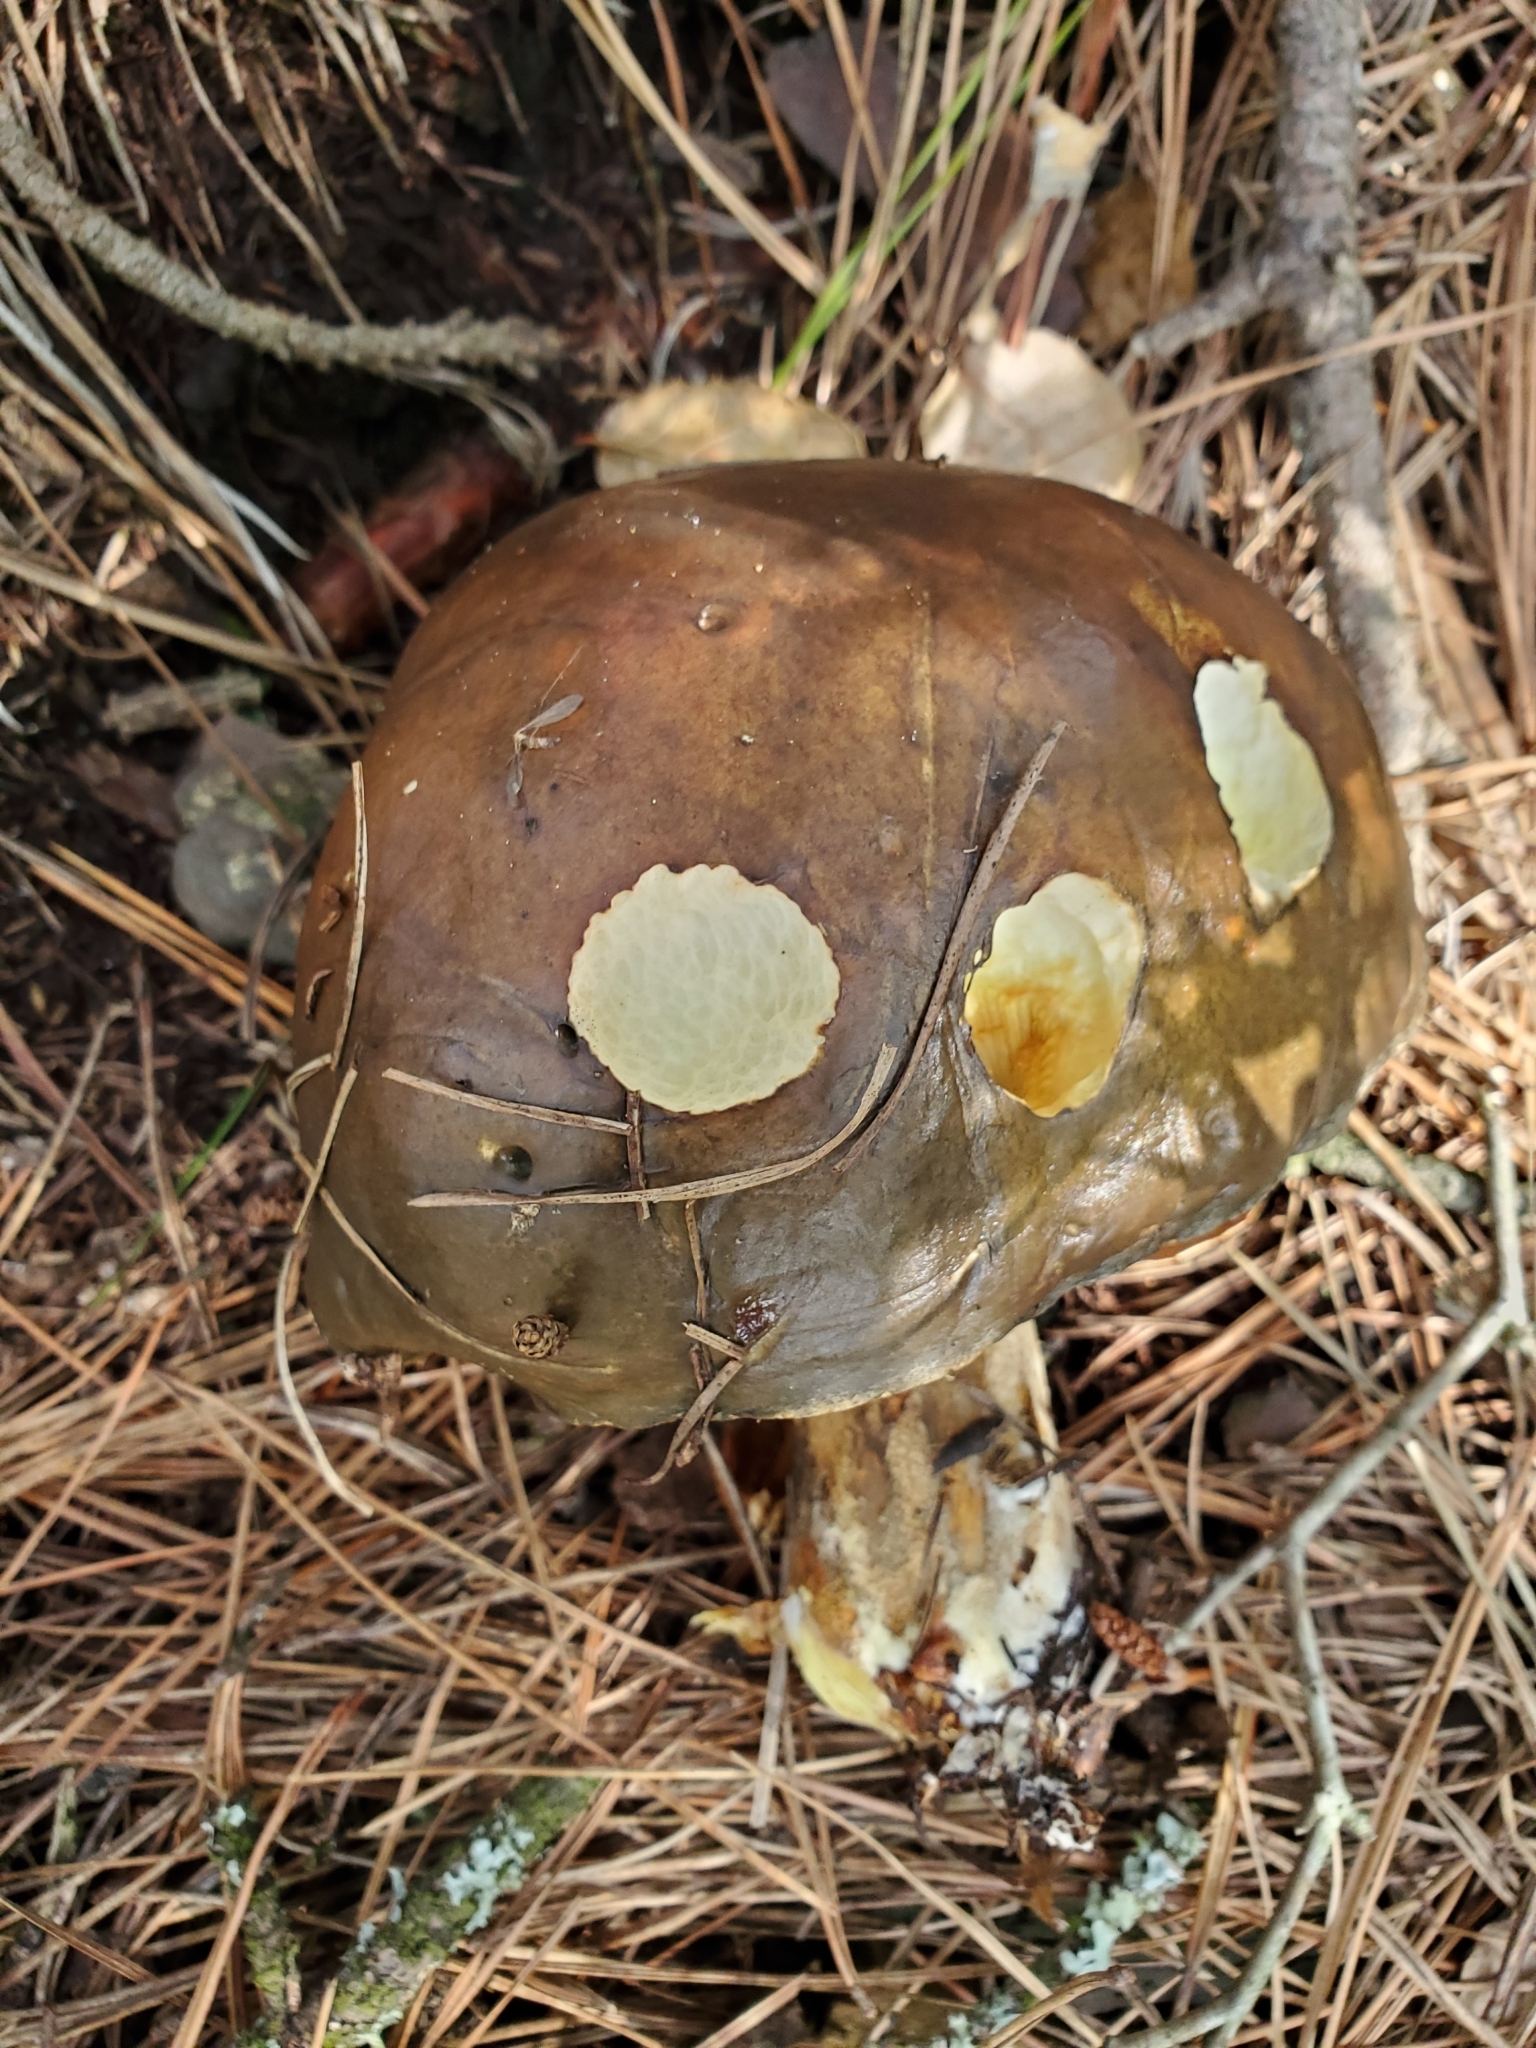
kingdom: Fungi
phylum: Basidiomycota
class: Agaricomycetes
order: Boletales
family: Suillaceae
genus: Suillus
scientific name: Suillus pungens
